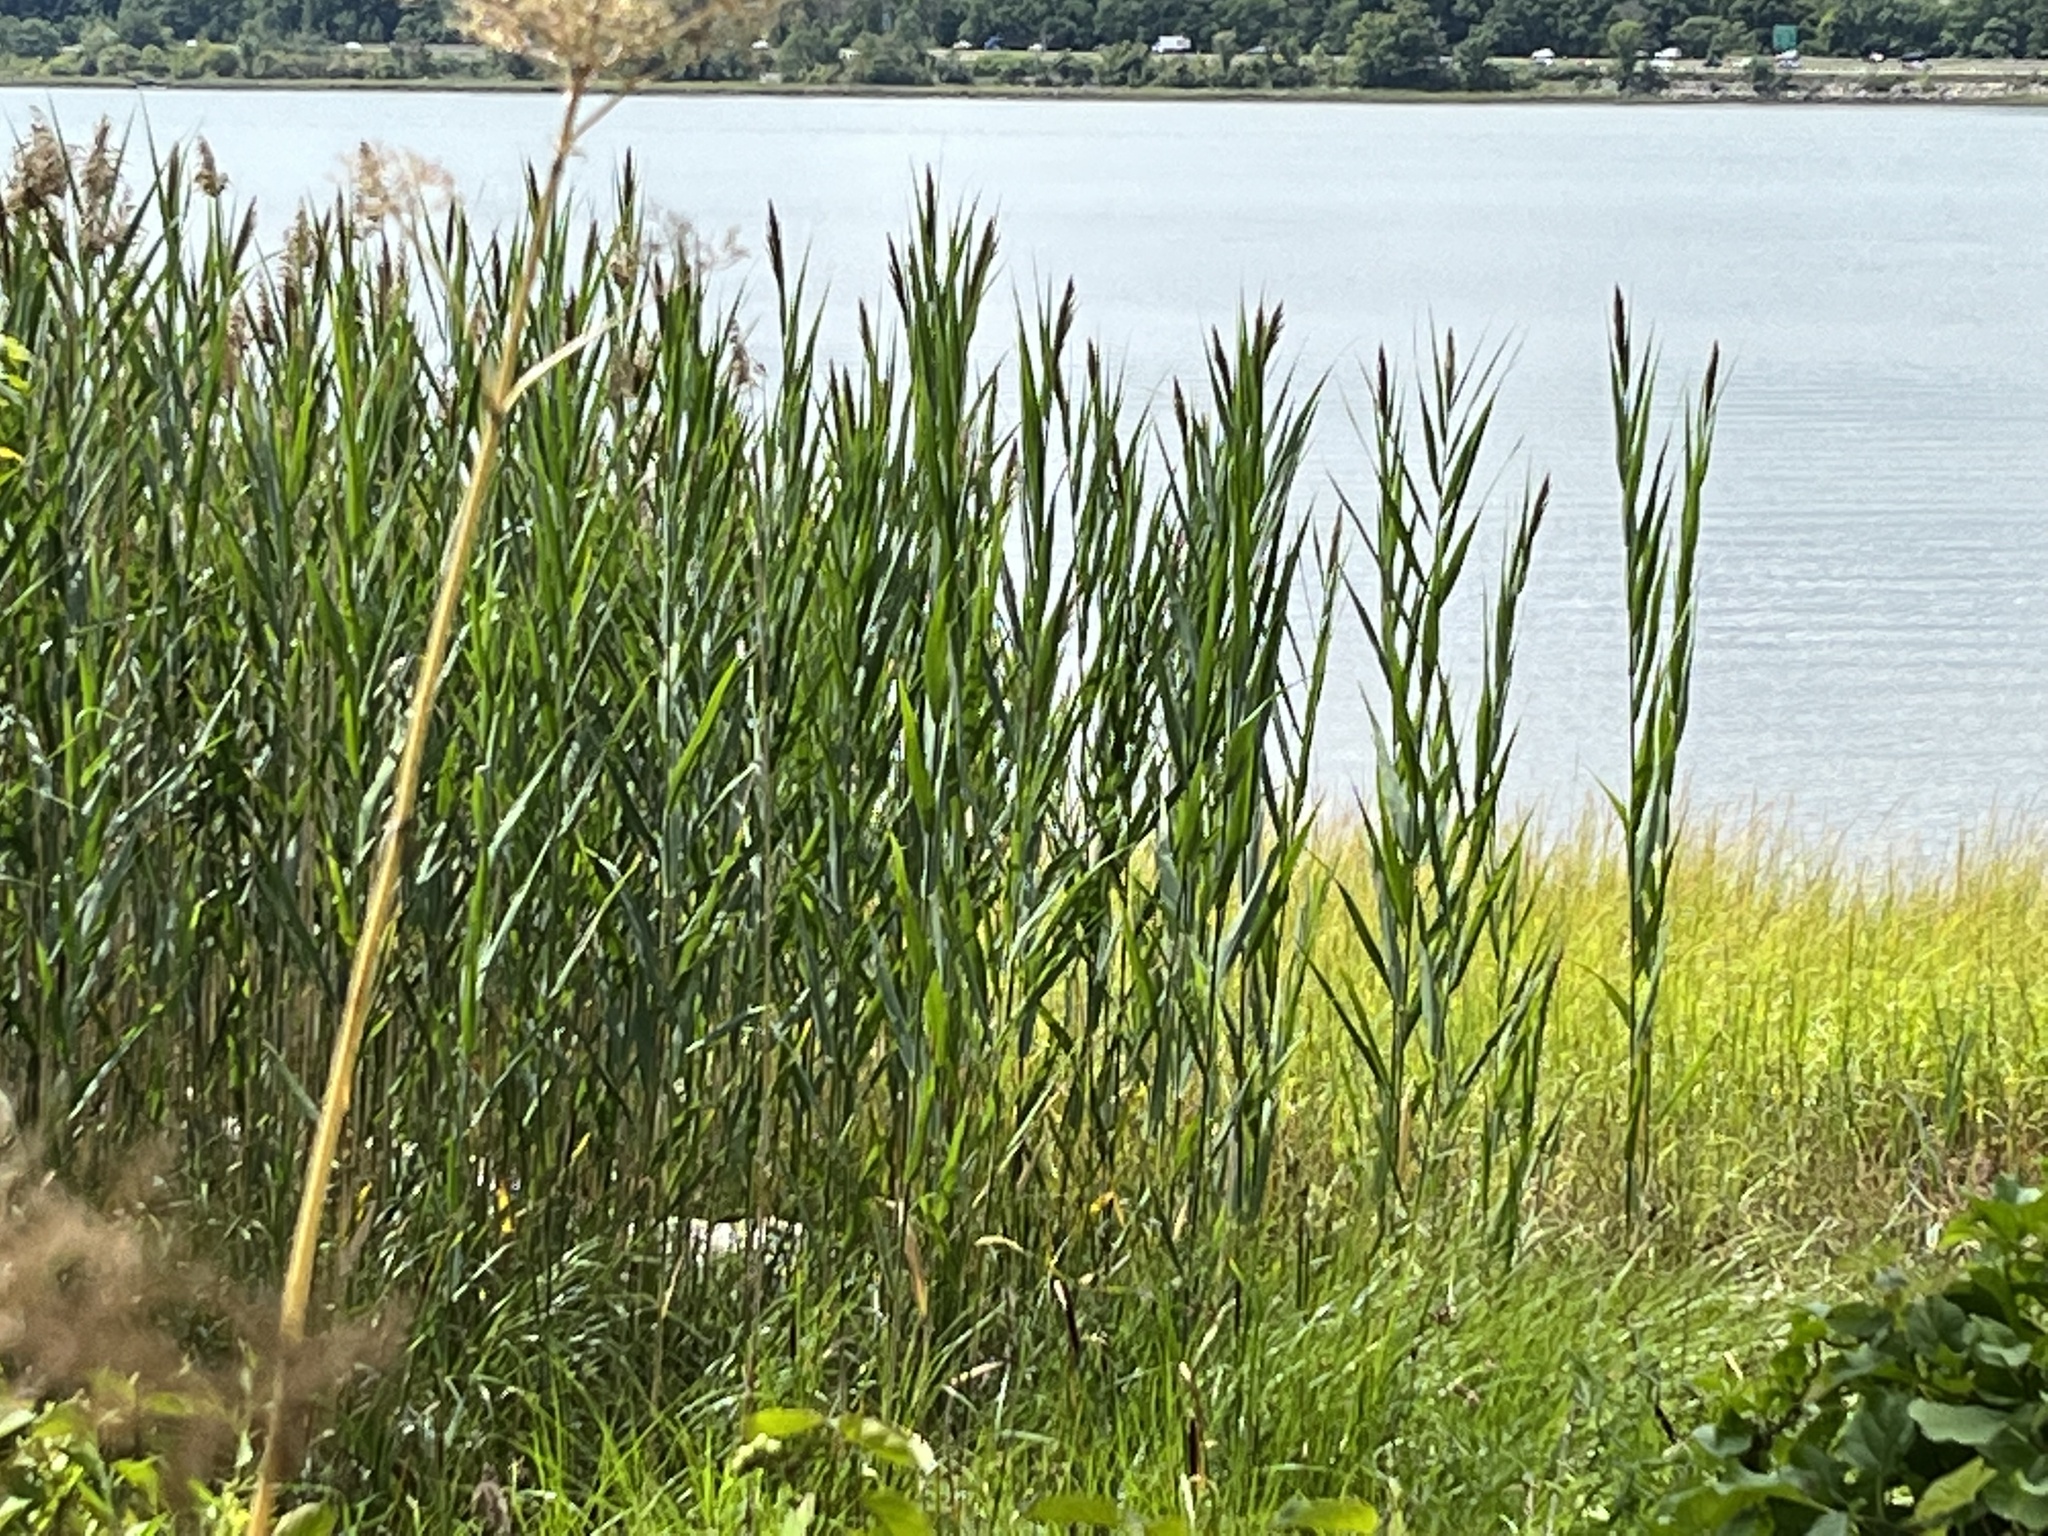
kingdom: Plantae
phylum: Tracheophyta
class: Liliopsida
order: Poales
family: Poaceae
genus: Phragmites
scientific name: Phragmites australis
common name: Common reed
